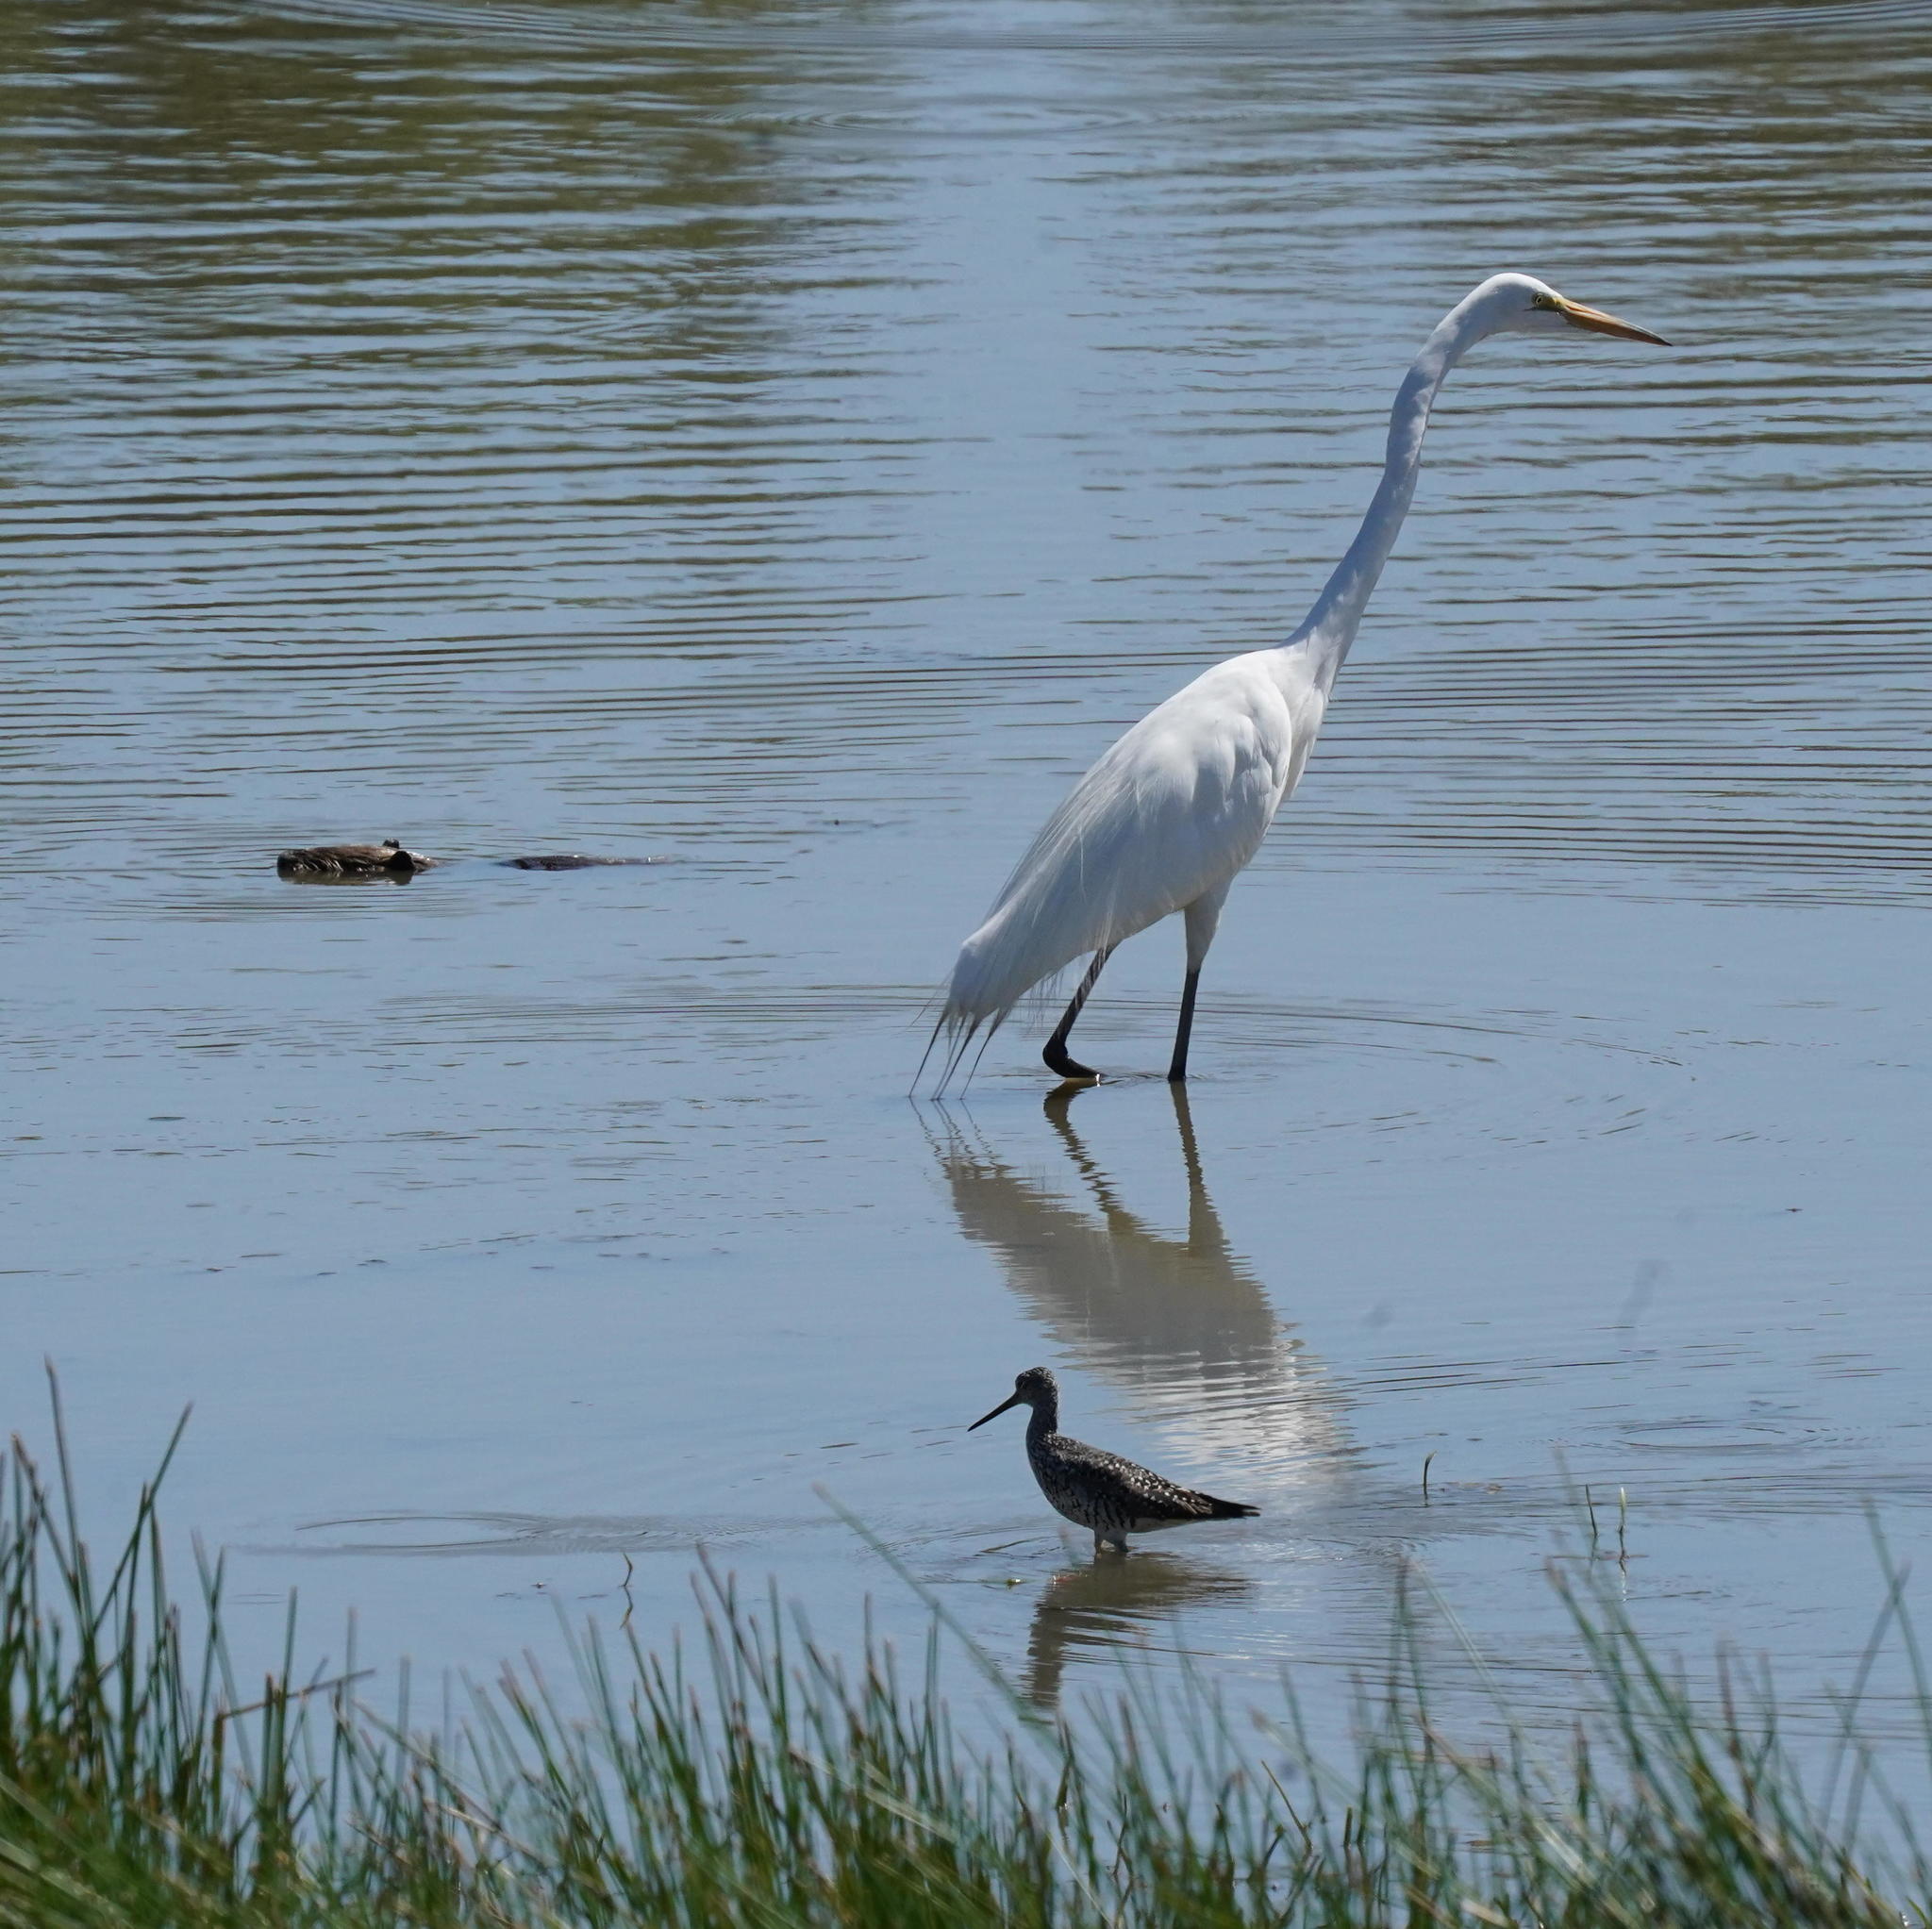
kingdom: Animalia
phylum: Chordata
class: Aves
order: Pelecaniformes
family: Ardeidae
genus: Ardea
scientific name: Ardea alba
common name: Great egret
